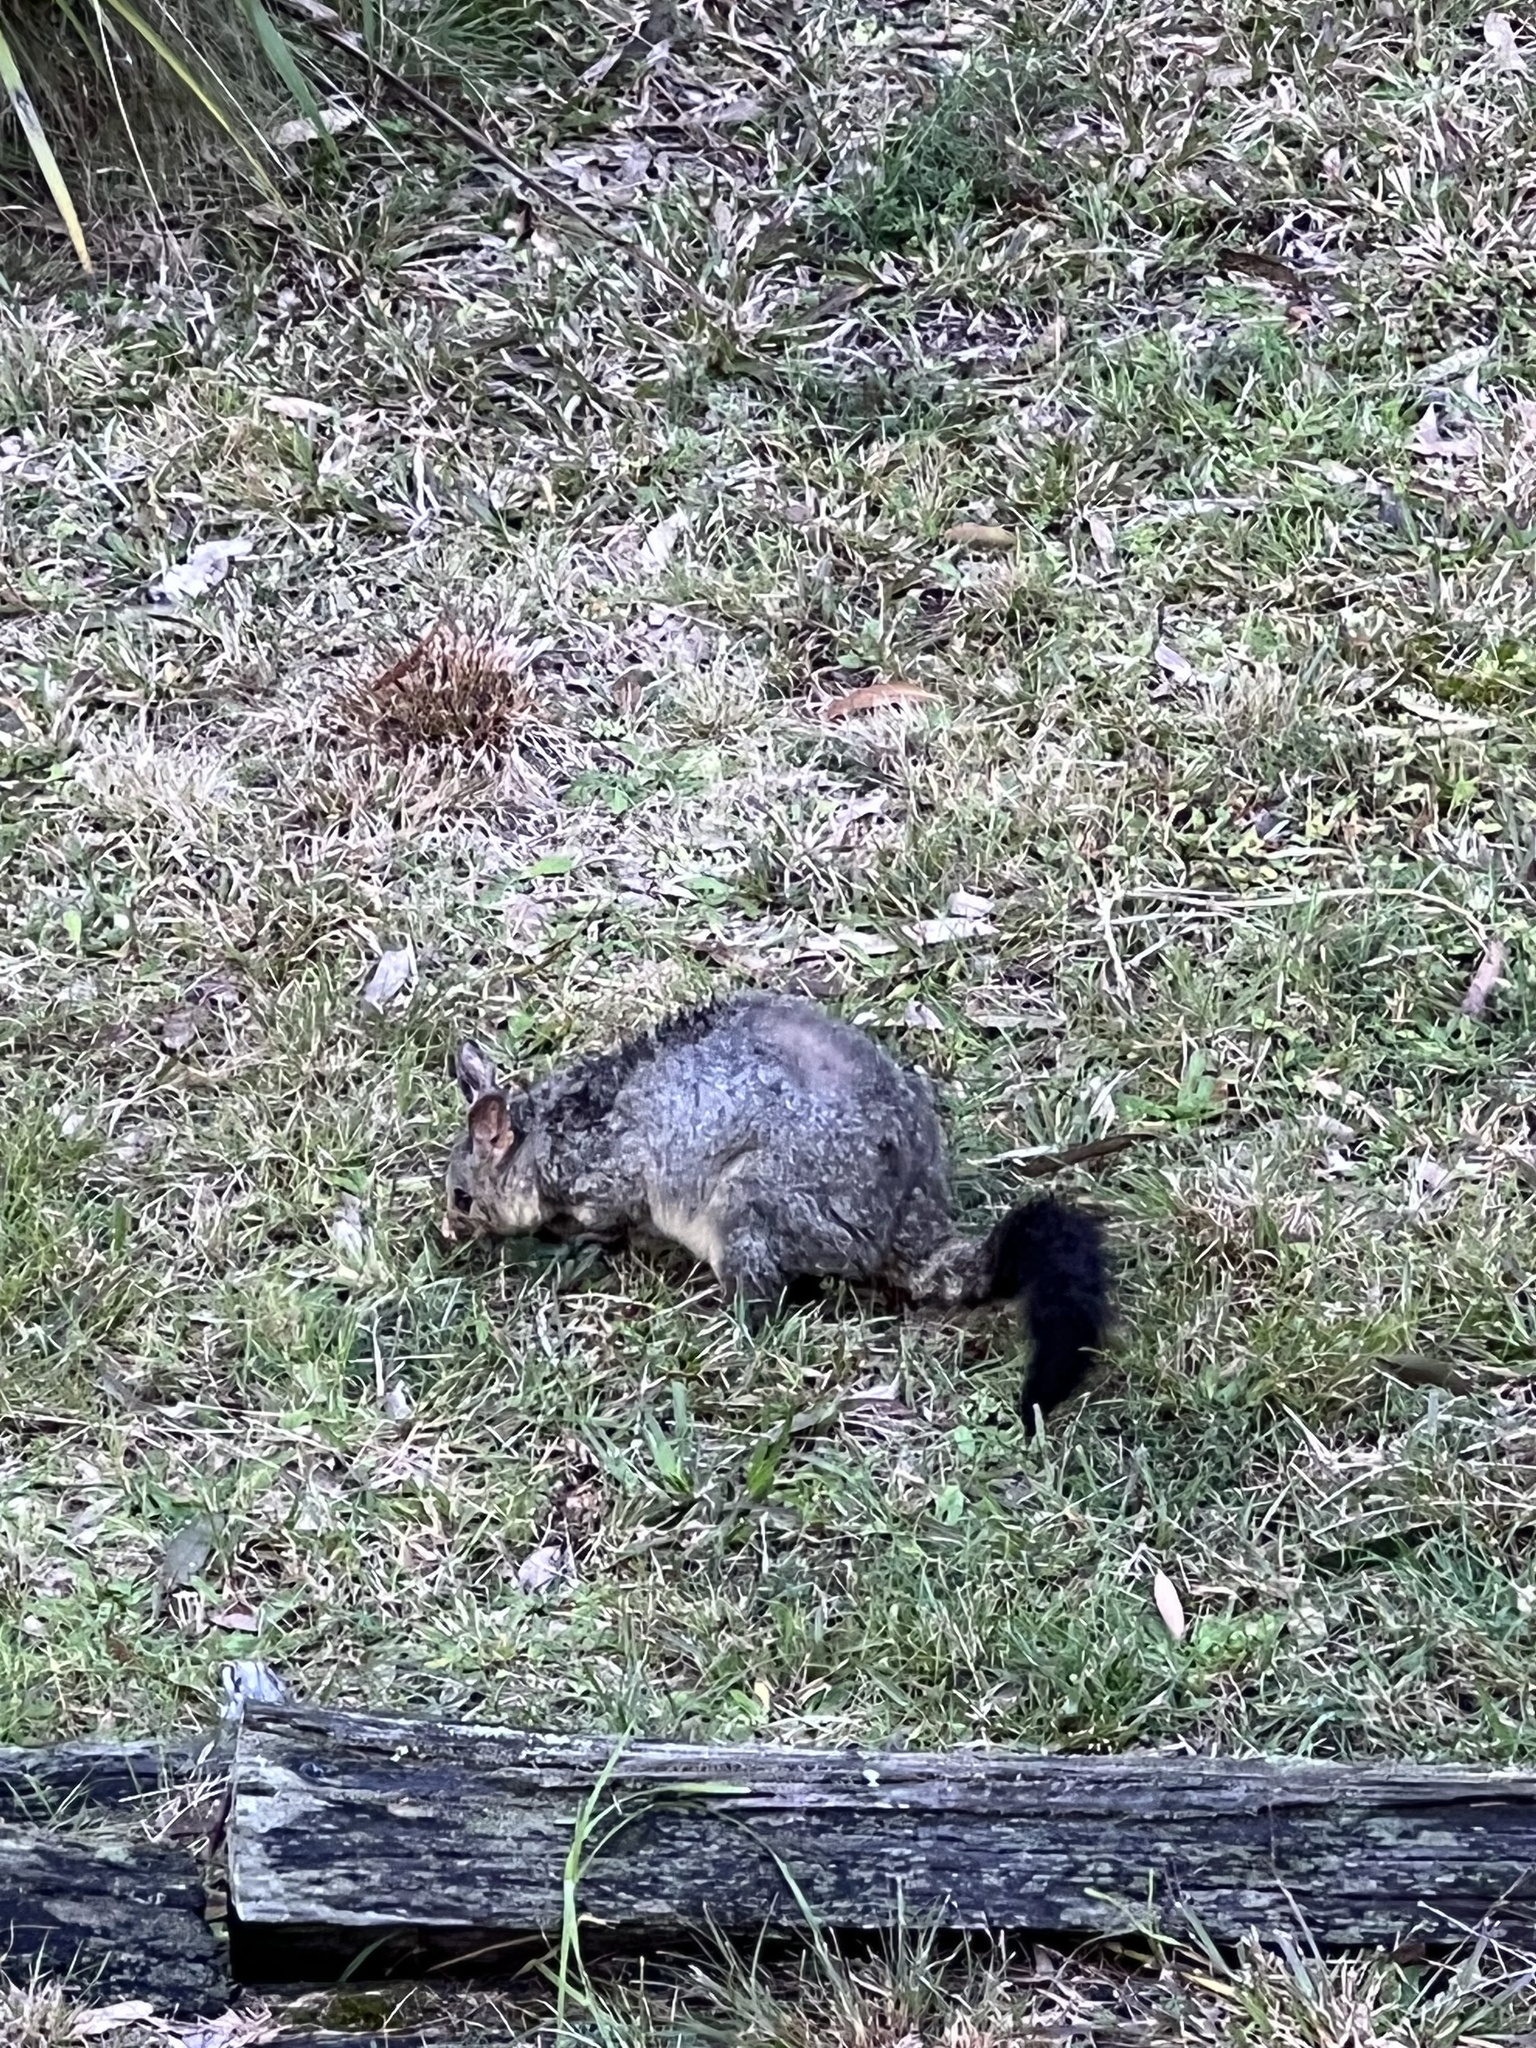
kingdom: Animalia
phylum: Chordata
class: Mammalia
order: Diprotodontia
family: Phalangeridae
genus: Trichosurus
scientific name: Trichosurus vulpecula
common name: Common brushtail
